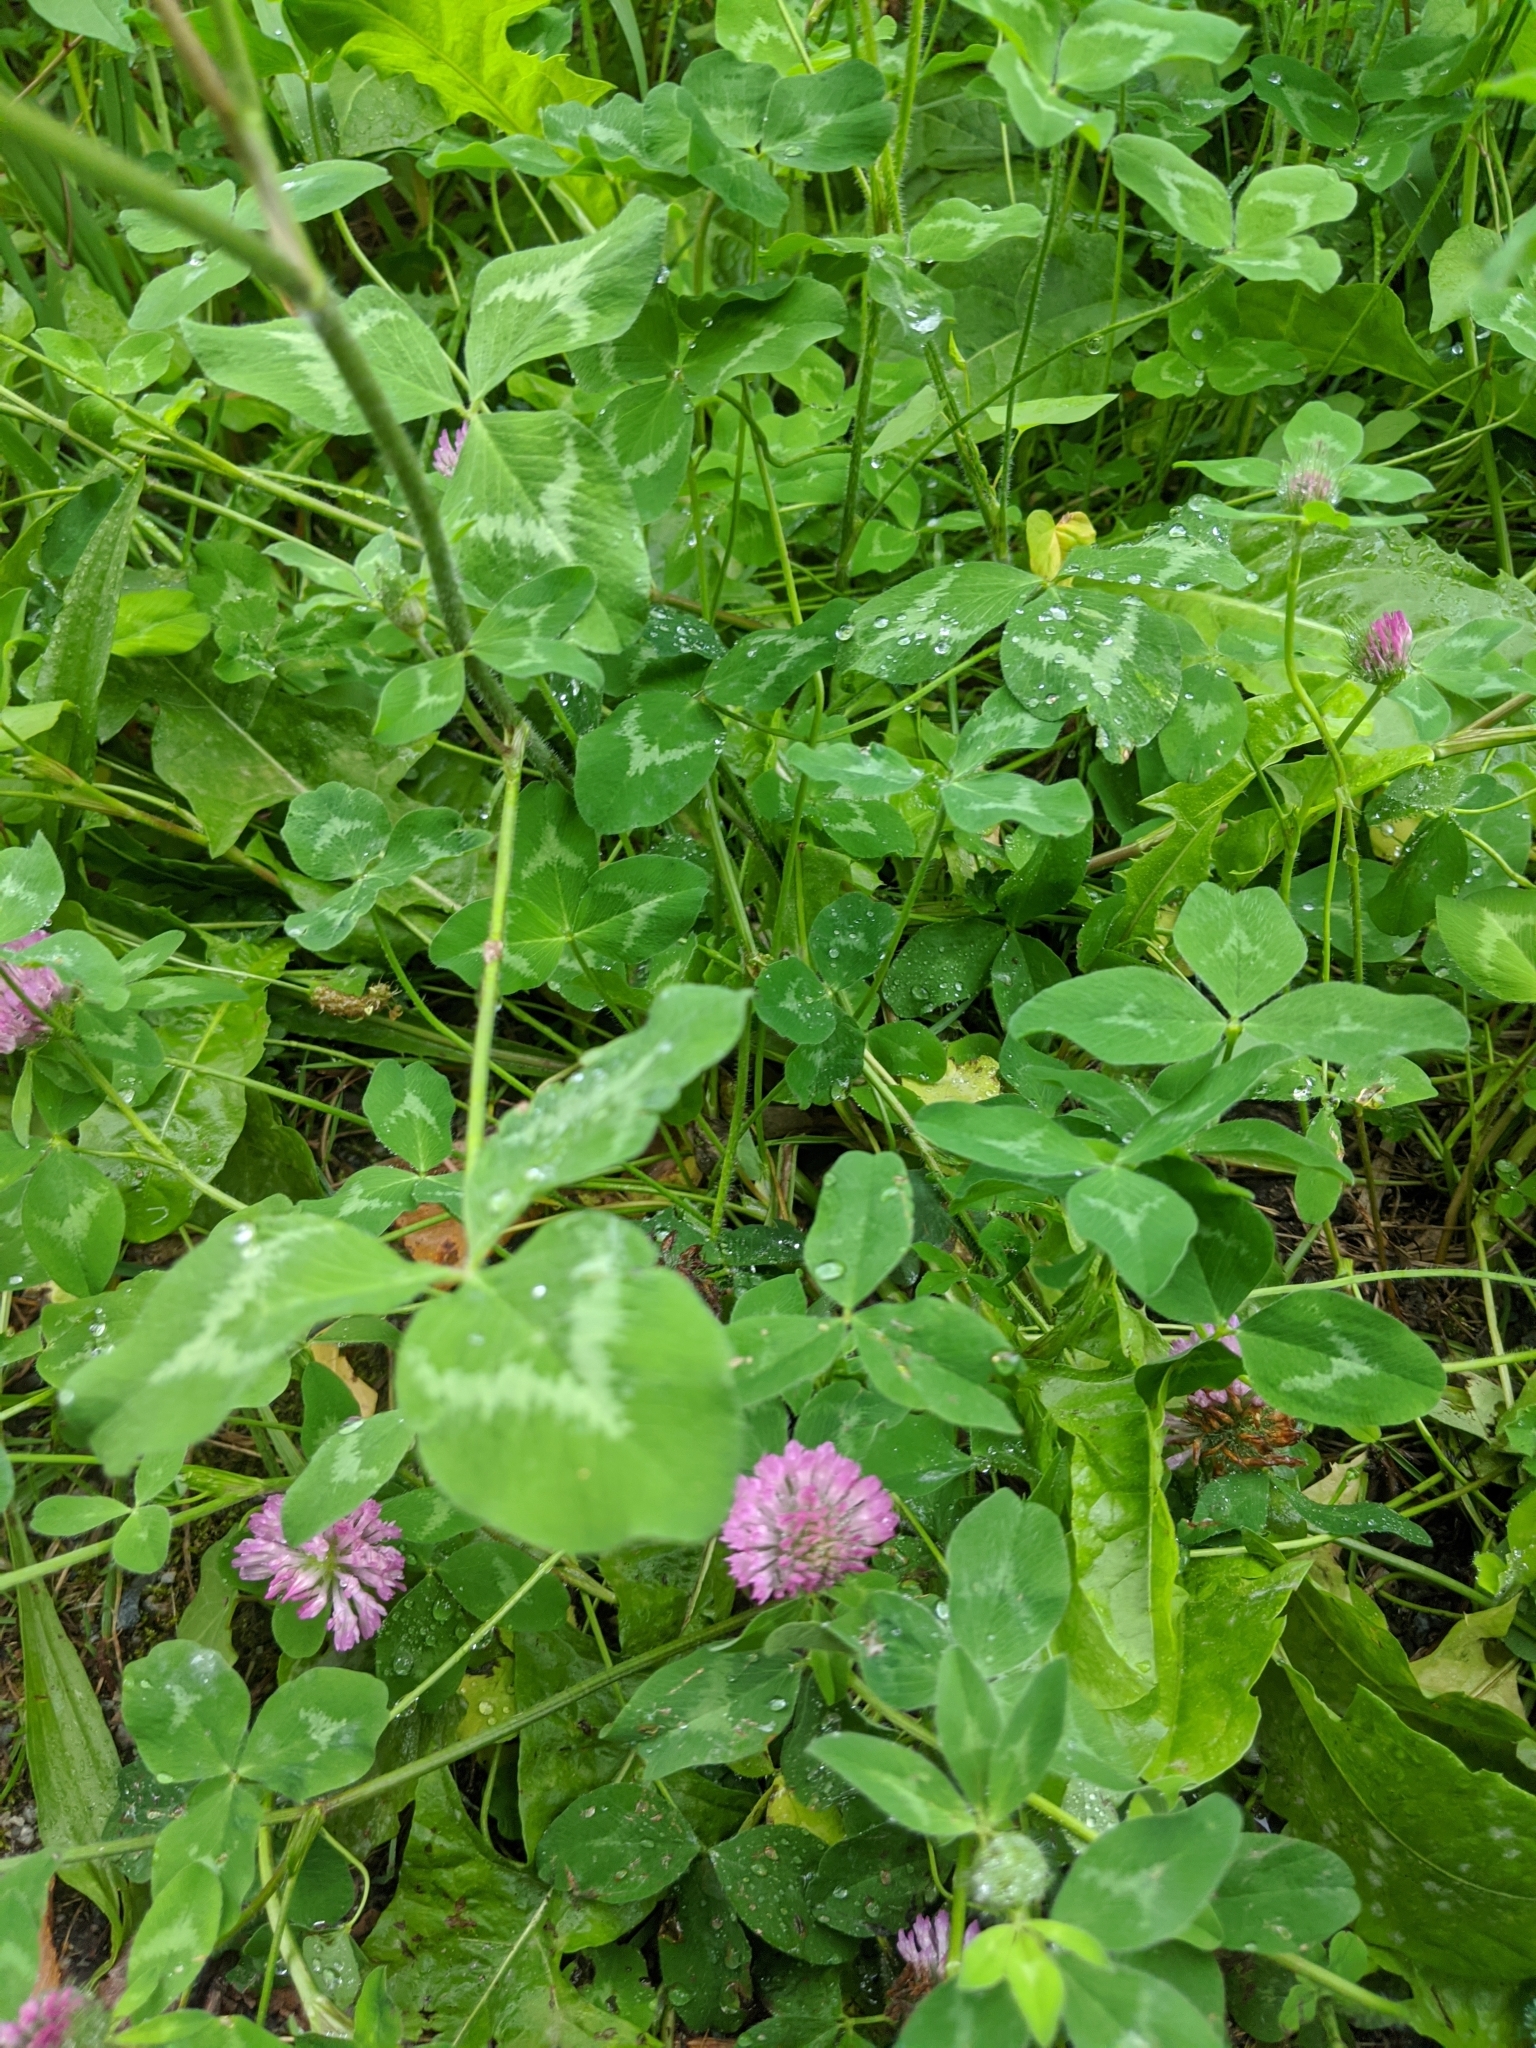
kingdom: Plantae
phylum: Tracheophyta
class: Magnoliopsida
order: Fabales
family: Fabaceae
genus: Trifolium
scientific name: Trifolium pratense
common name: Red clover
